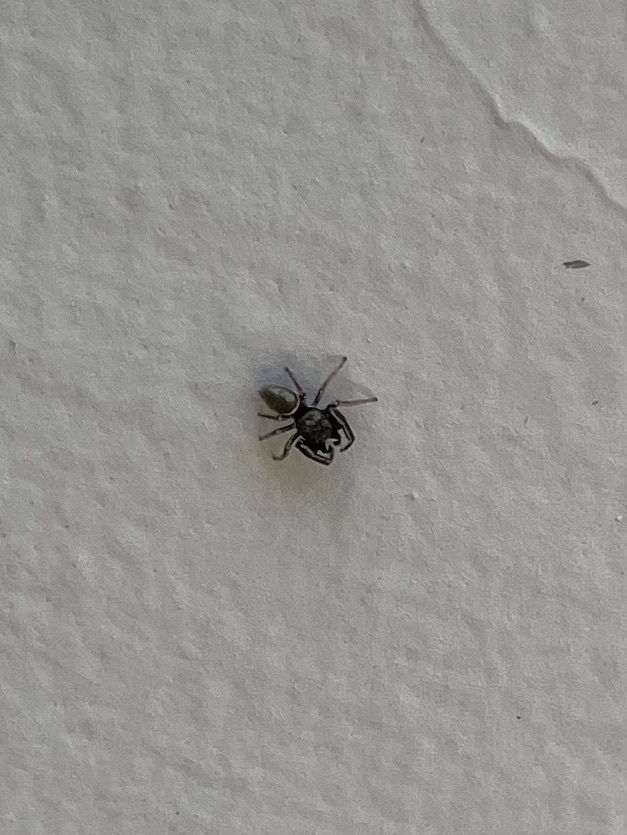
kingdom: Animalia
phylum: Arthropoda
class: Arachnida
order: Araneae
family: Salticidae
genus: Sassacus
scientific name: Sassacus vitis
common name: Jumping spiders
